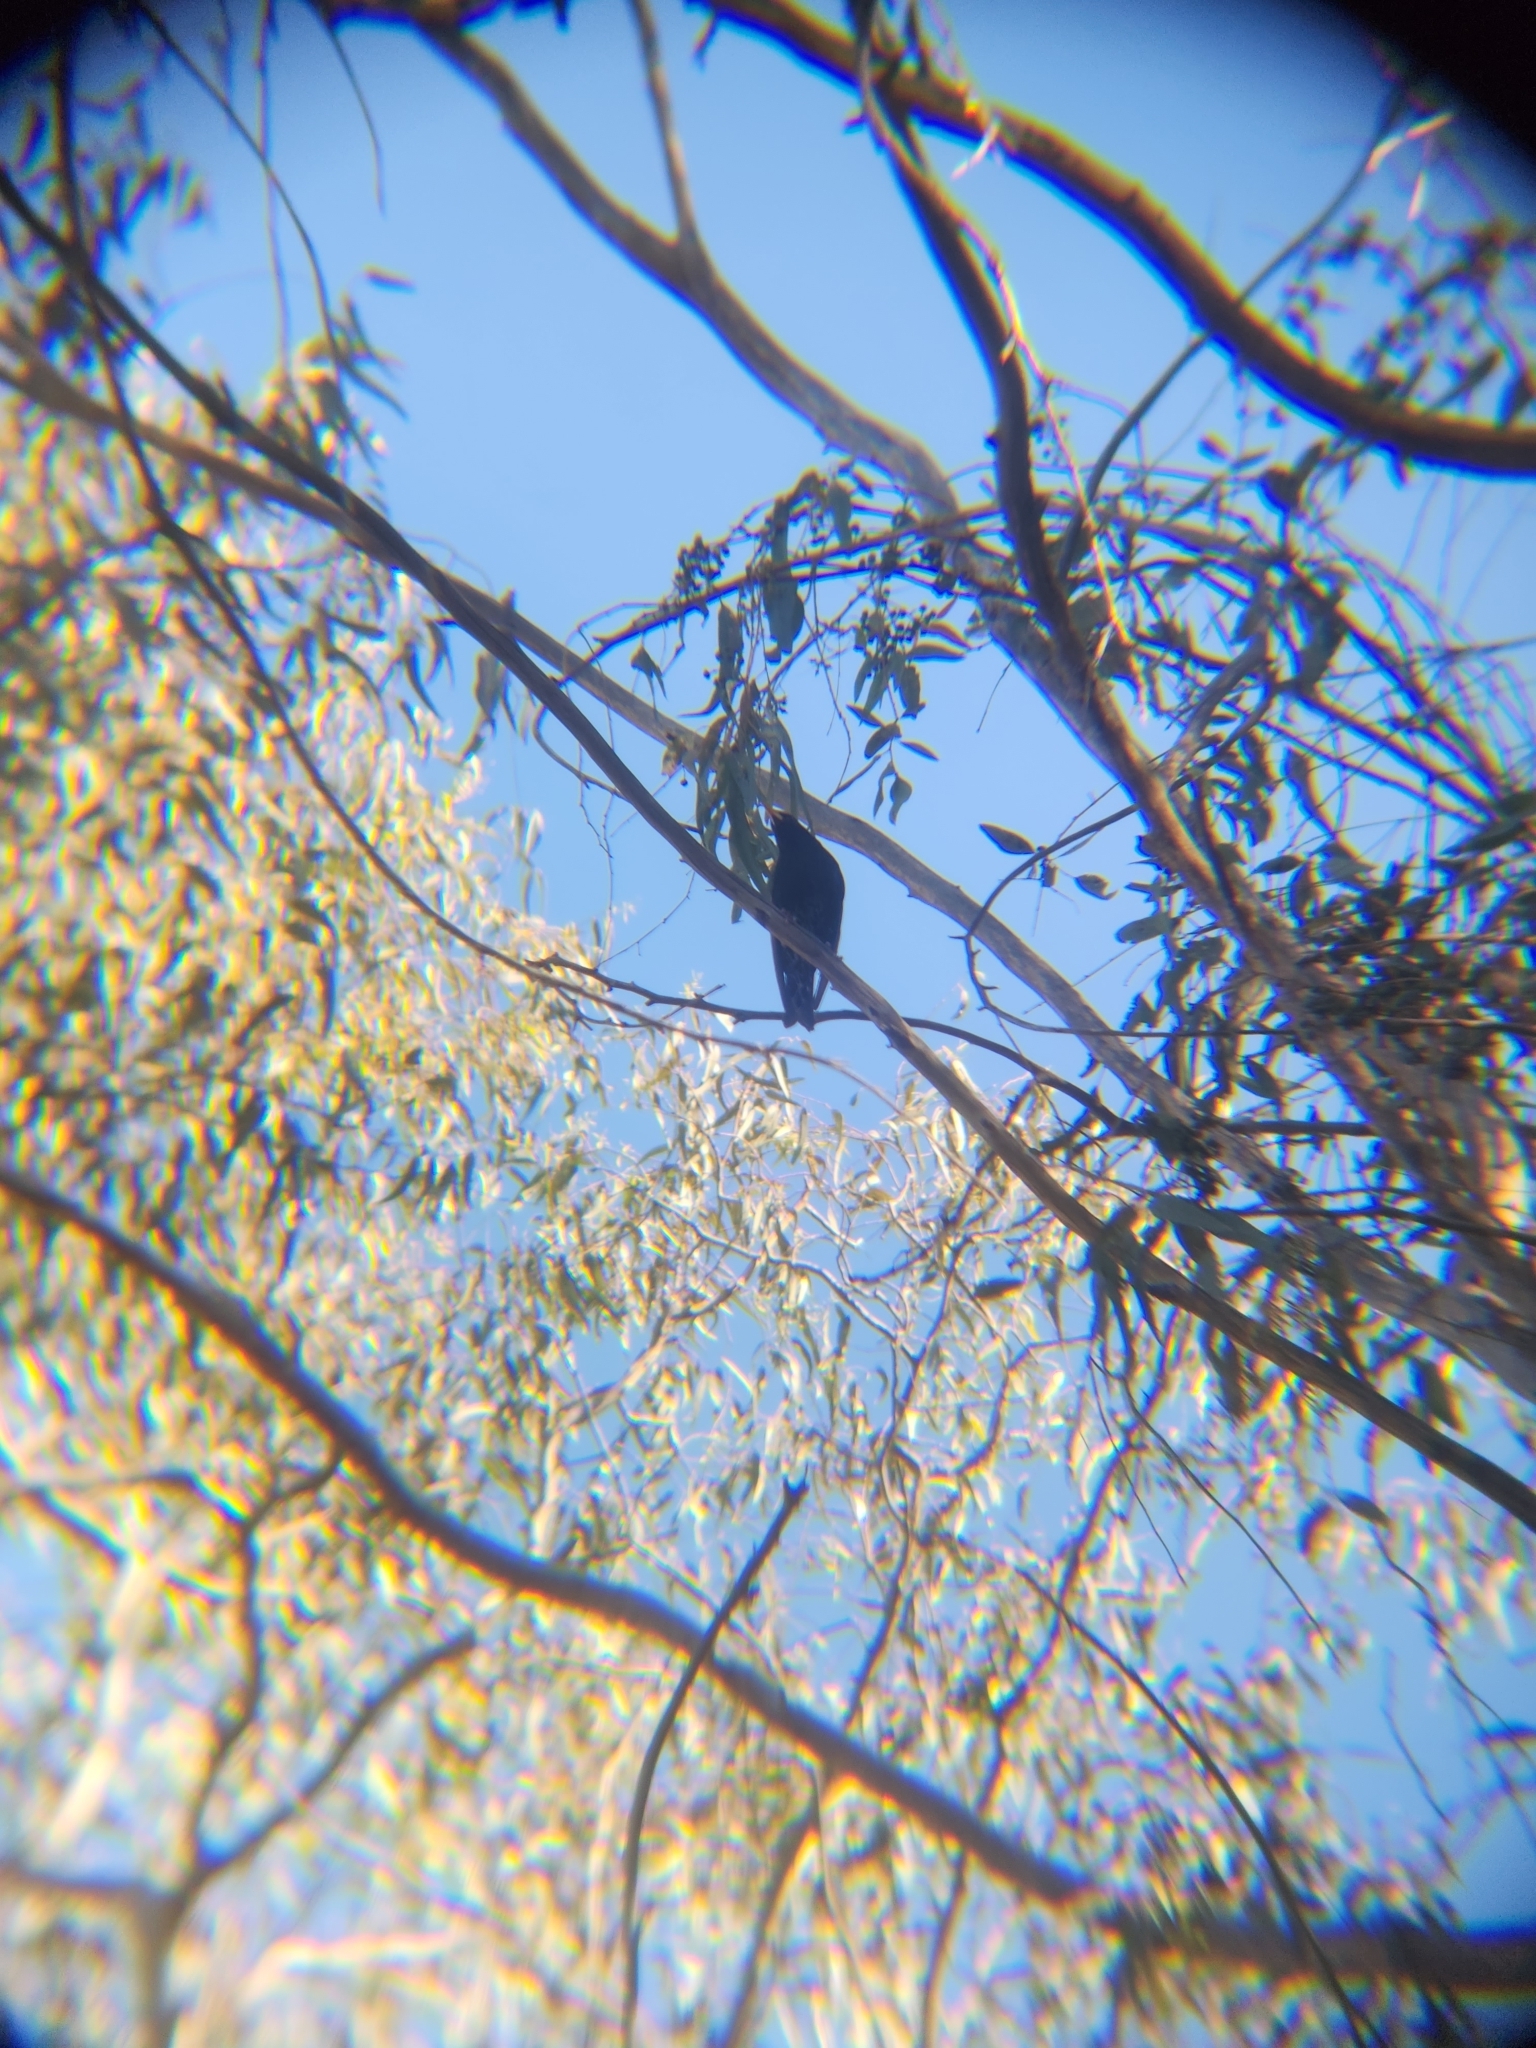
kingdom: Animalia
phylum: Chordata
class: Aves
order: Passeriformes
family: Sturnidae
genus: Sturnus
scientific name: Sturnus vulgaris
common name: Common starling
